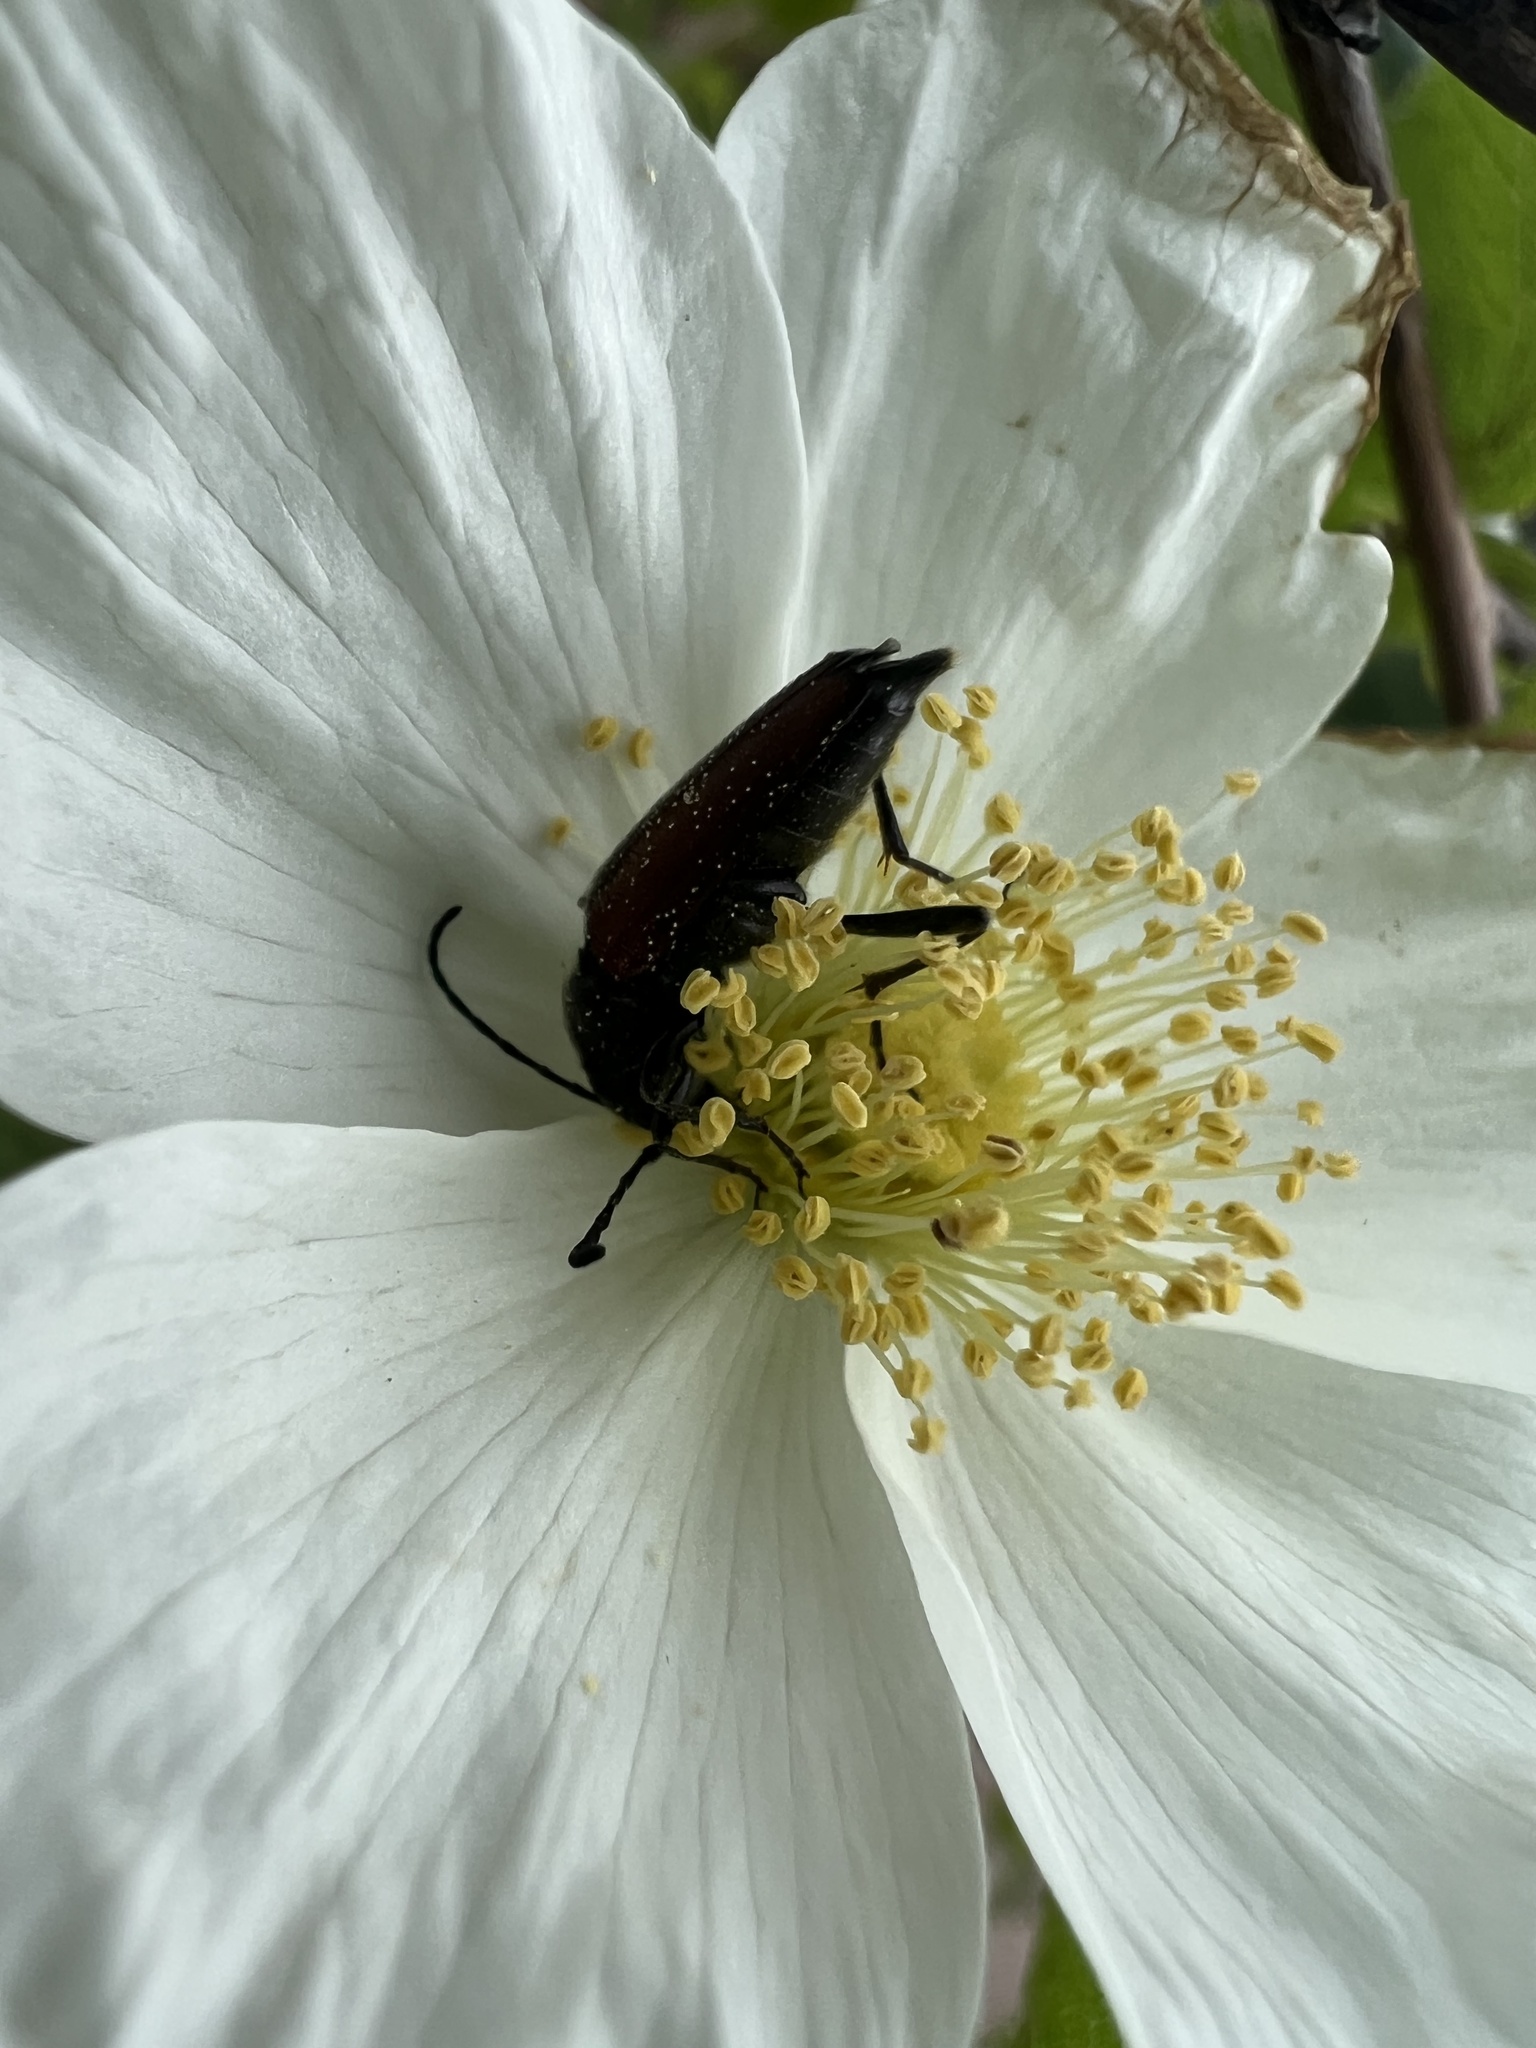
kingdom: Animalia
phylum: Arthropoda
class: Insecta
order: Coleoptera
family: Cerambycidae
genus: Anastrangalia
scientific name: Anastrangalia sanguinea
